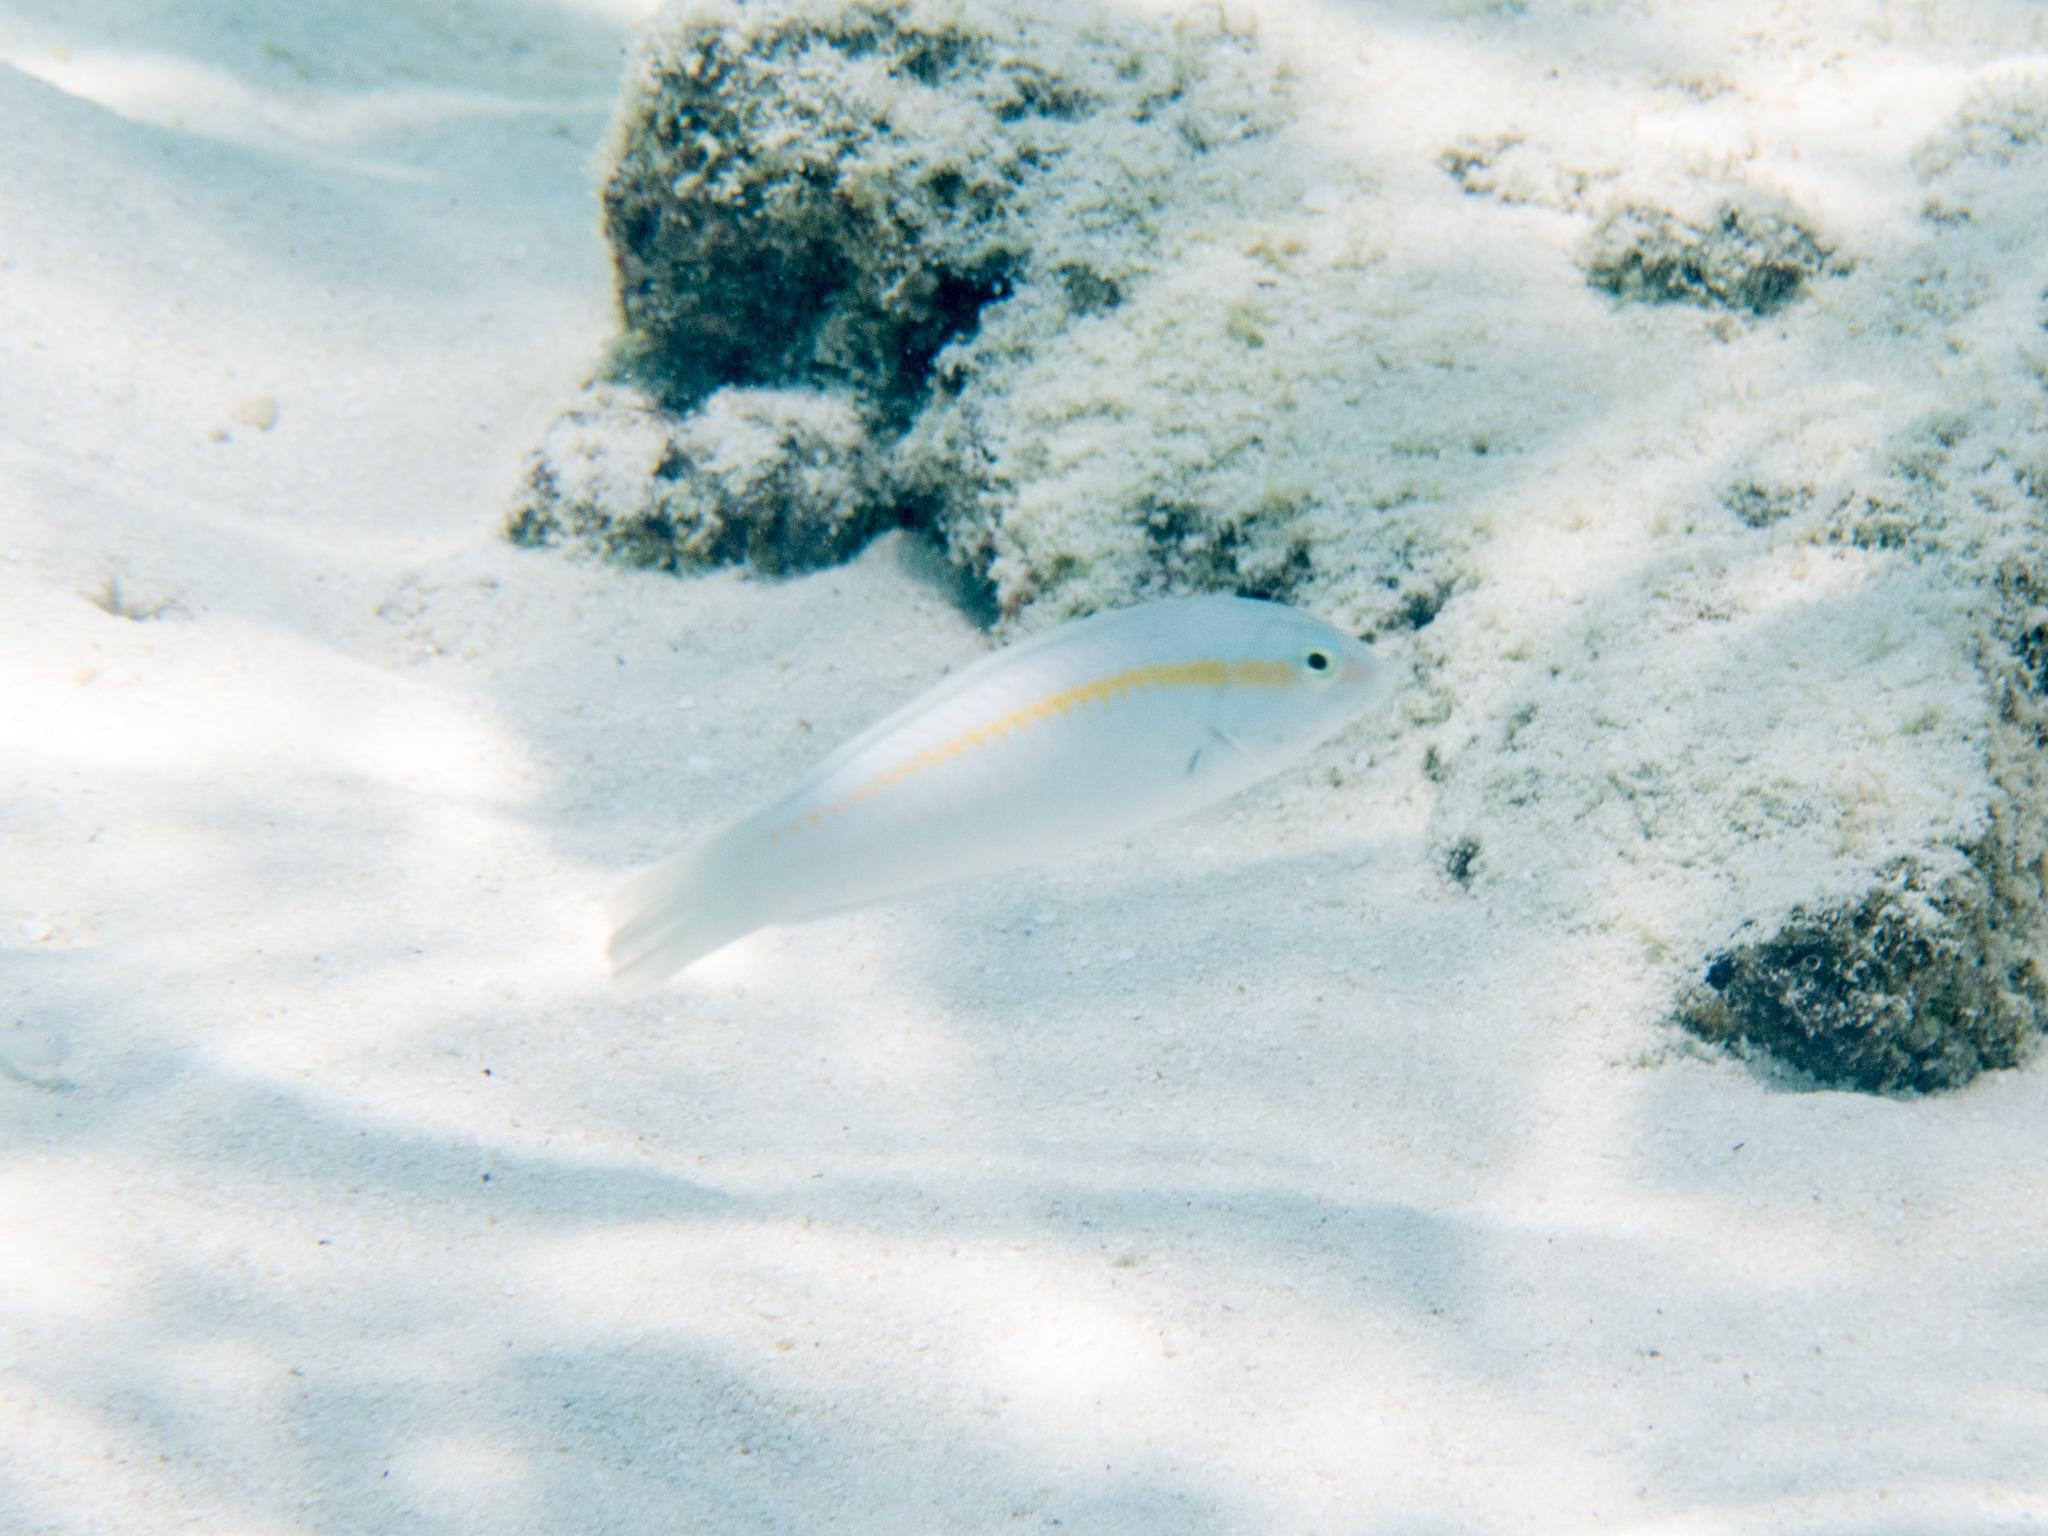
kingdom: Animalia
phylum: Chordata
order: Perciformes
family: Labridae
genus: Halichoeres
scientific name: Halichoeres scapularis
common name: Brownbanded wrasse
